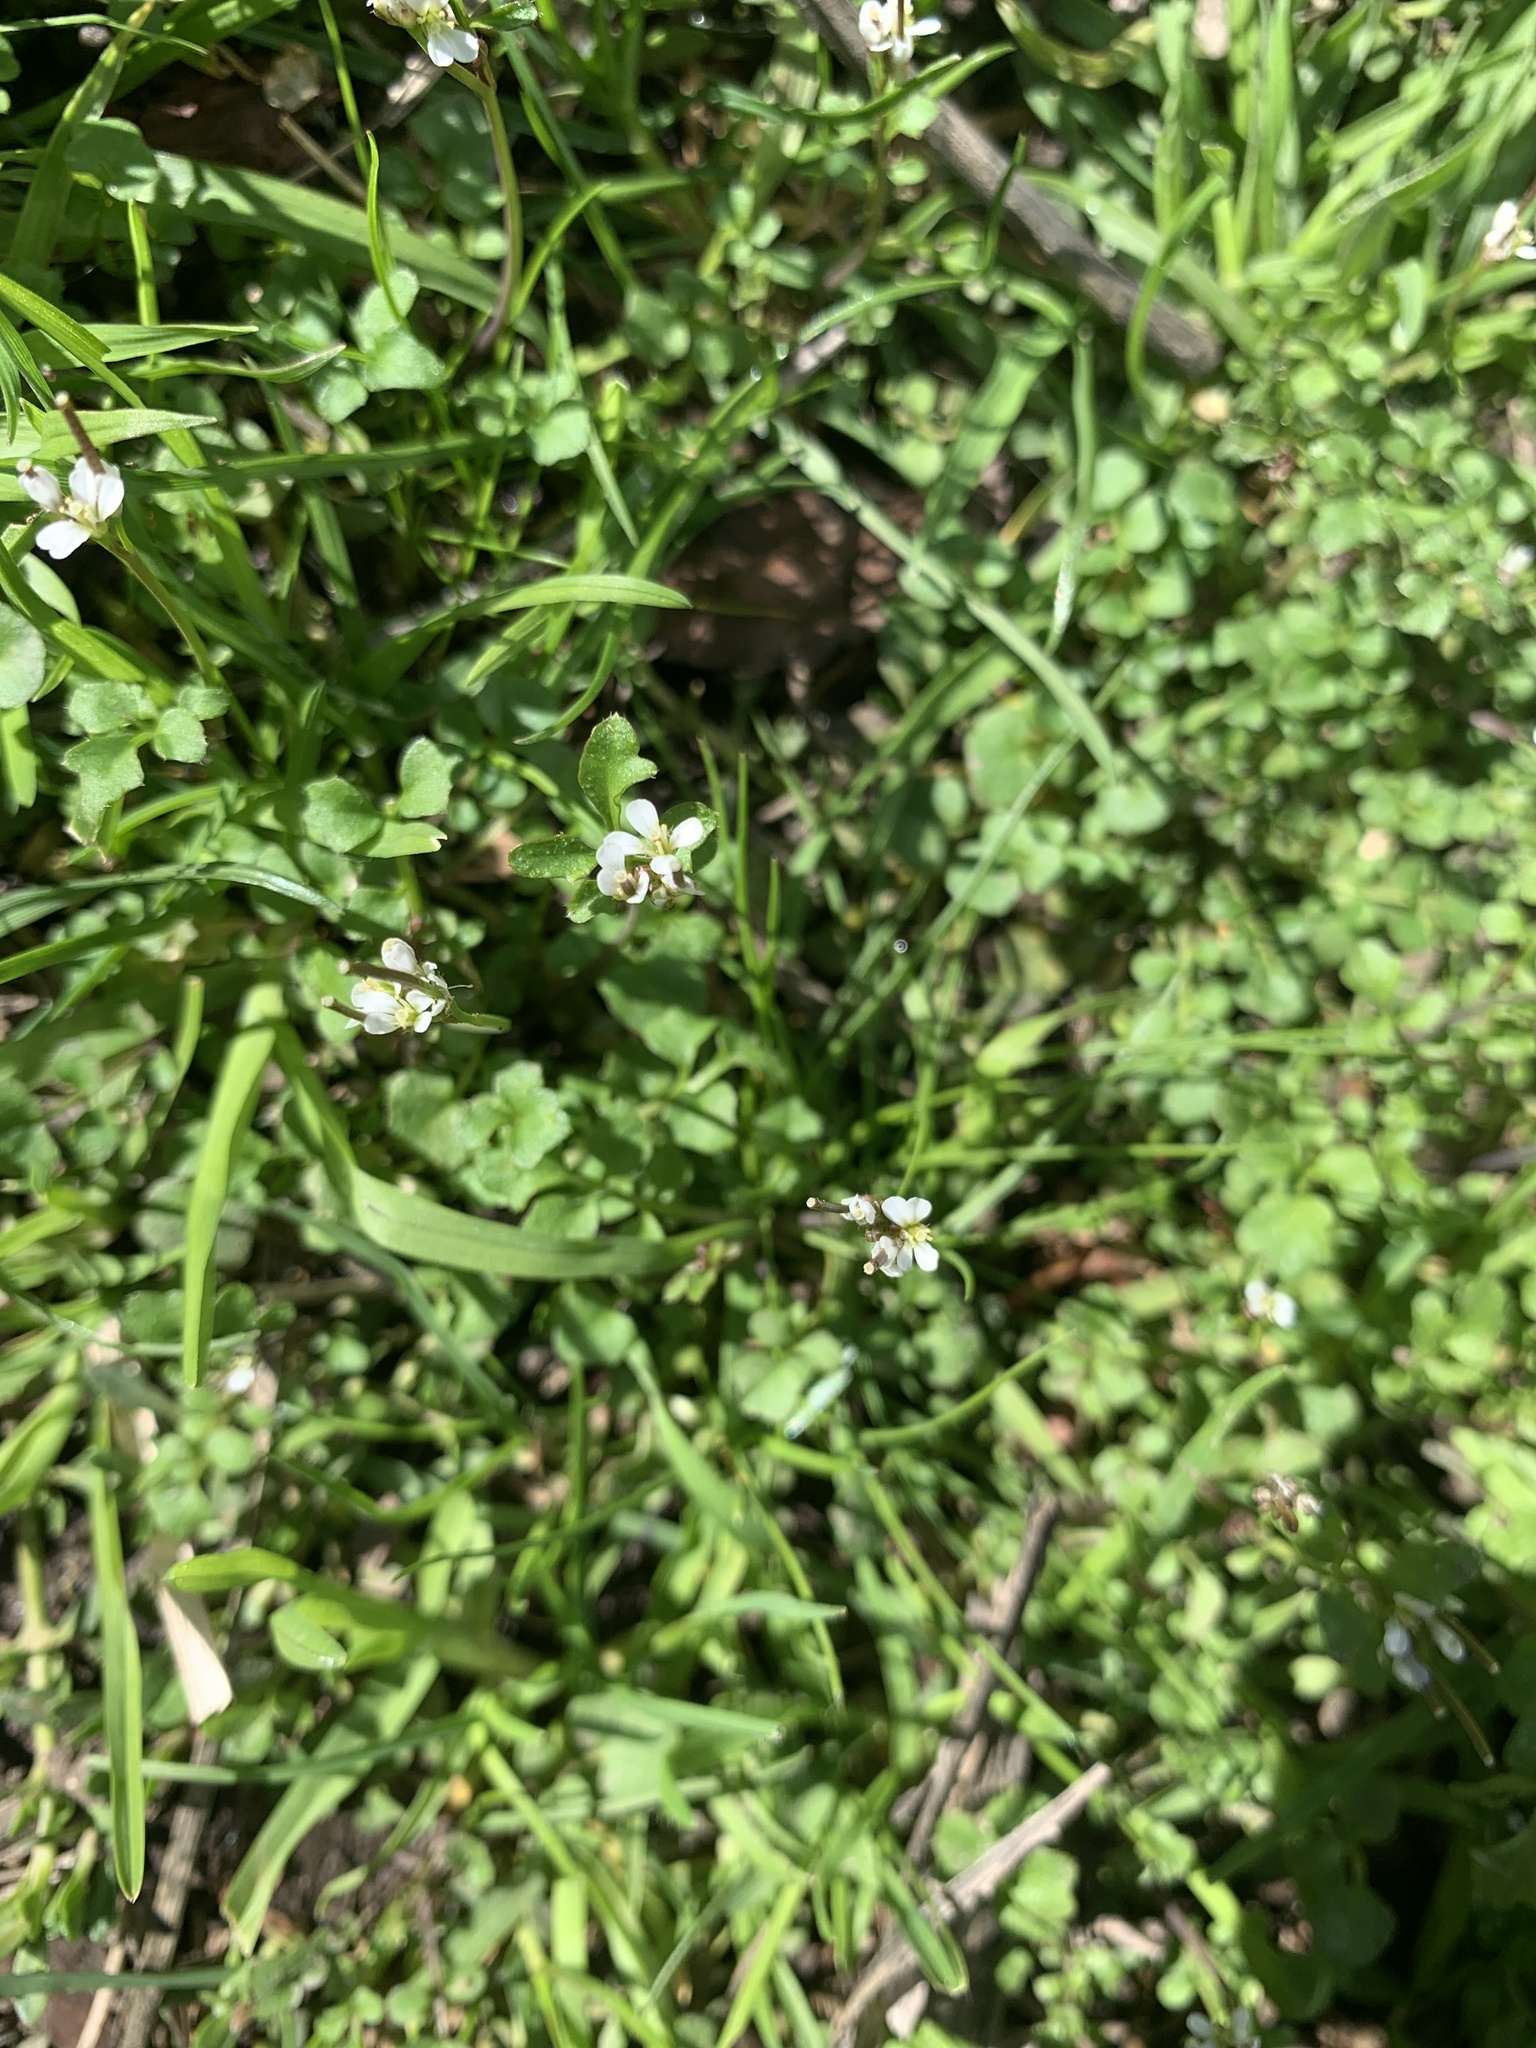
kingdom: Plantae
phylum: Tracheophyta
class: Magnoliopsida
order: Brassicales
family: Brassicaceae
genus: Cardamine
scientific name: Cardamine hirsuta
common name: Hairy bittercress
